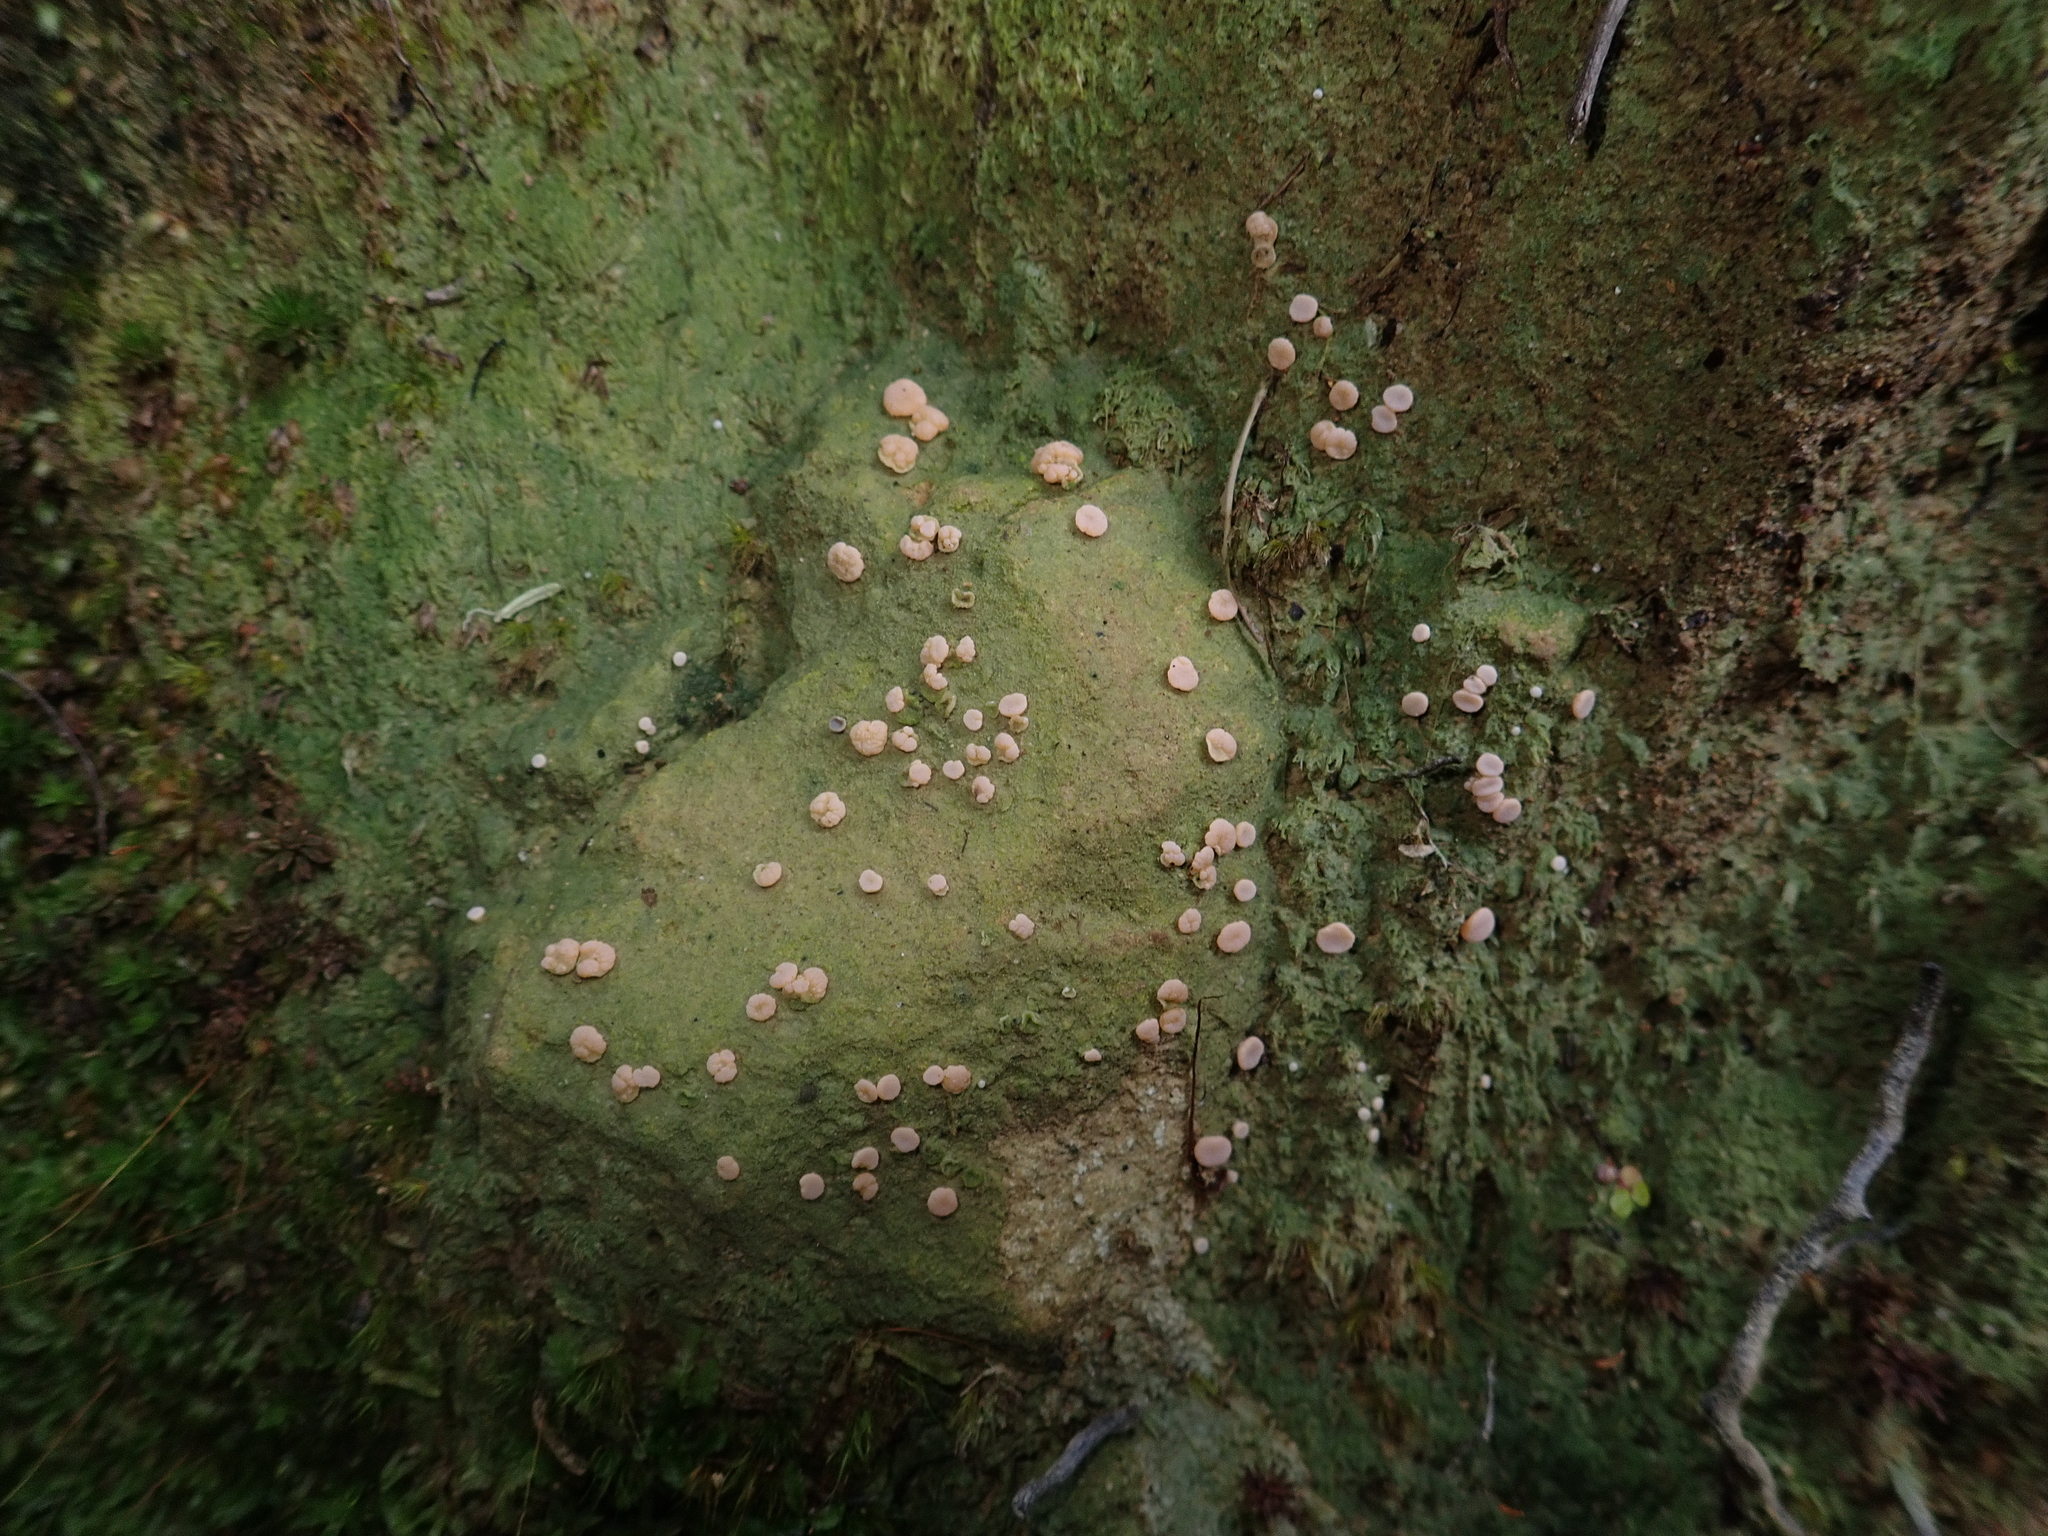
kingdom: Fungi
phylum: Ascomycota
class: Lecanoromycetes
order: Pertusariales
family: Icmadophilaceae
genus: Dibaeis
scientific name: Dibaeis absoluta
